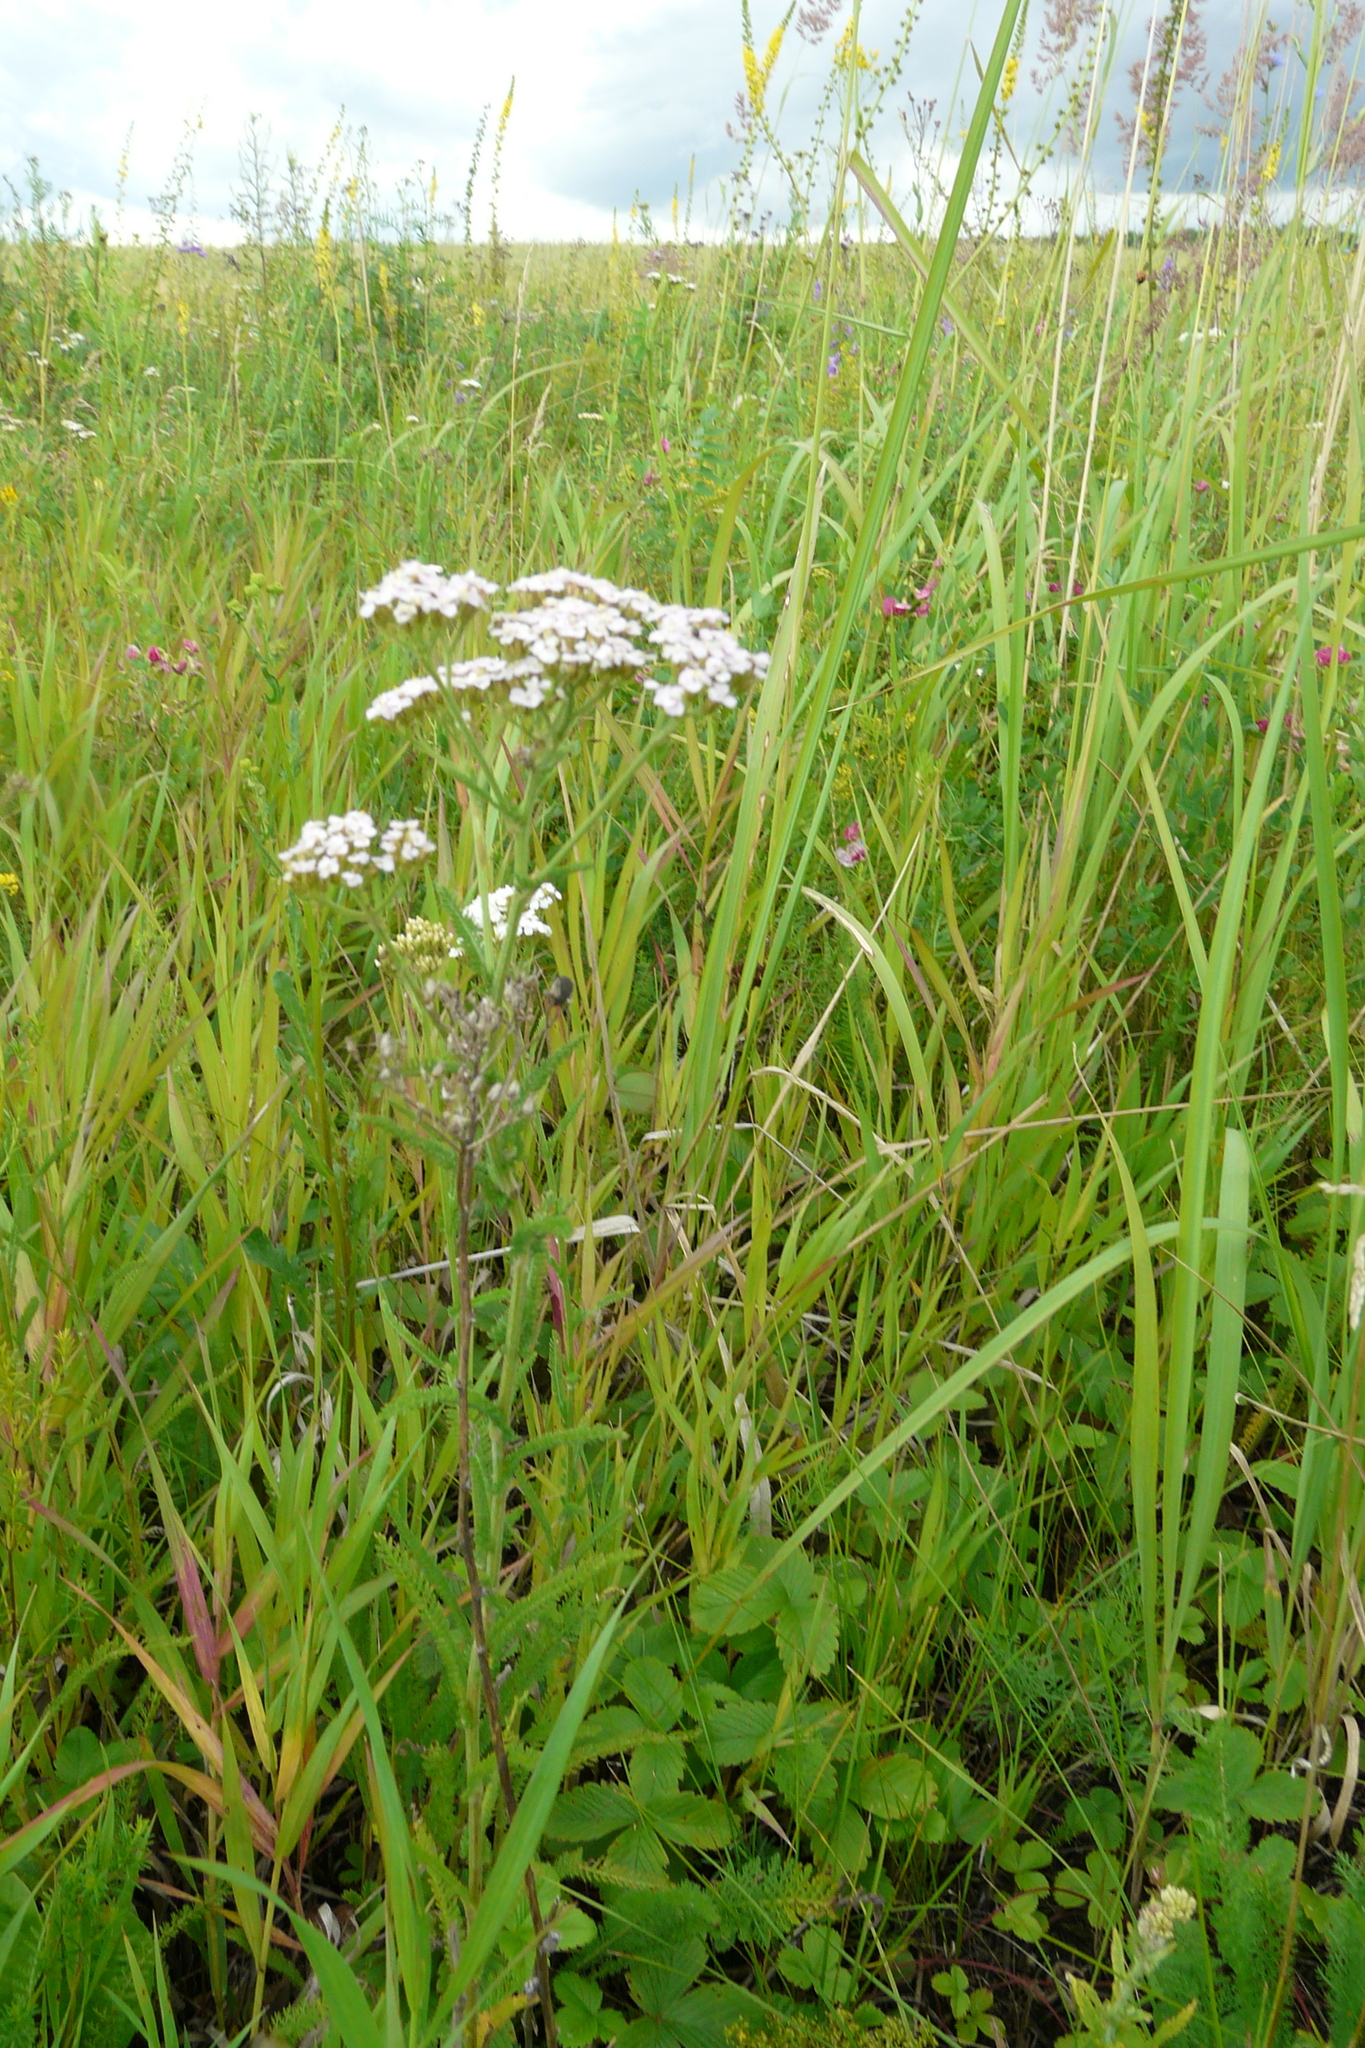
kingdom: Plantae
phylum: Tracheophyta
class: Magnoliopsida
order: Asterales
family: Asteraceae
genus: Achillea
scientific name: Achillea setacea
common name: Bristly yarrow
